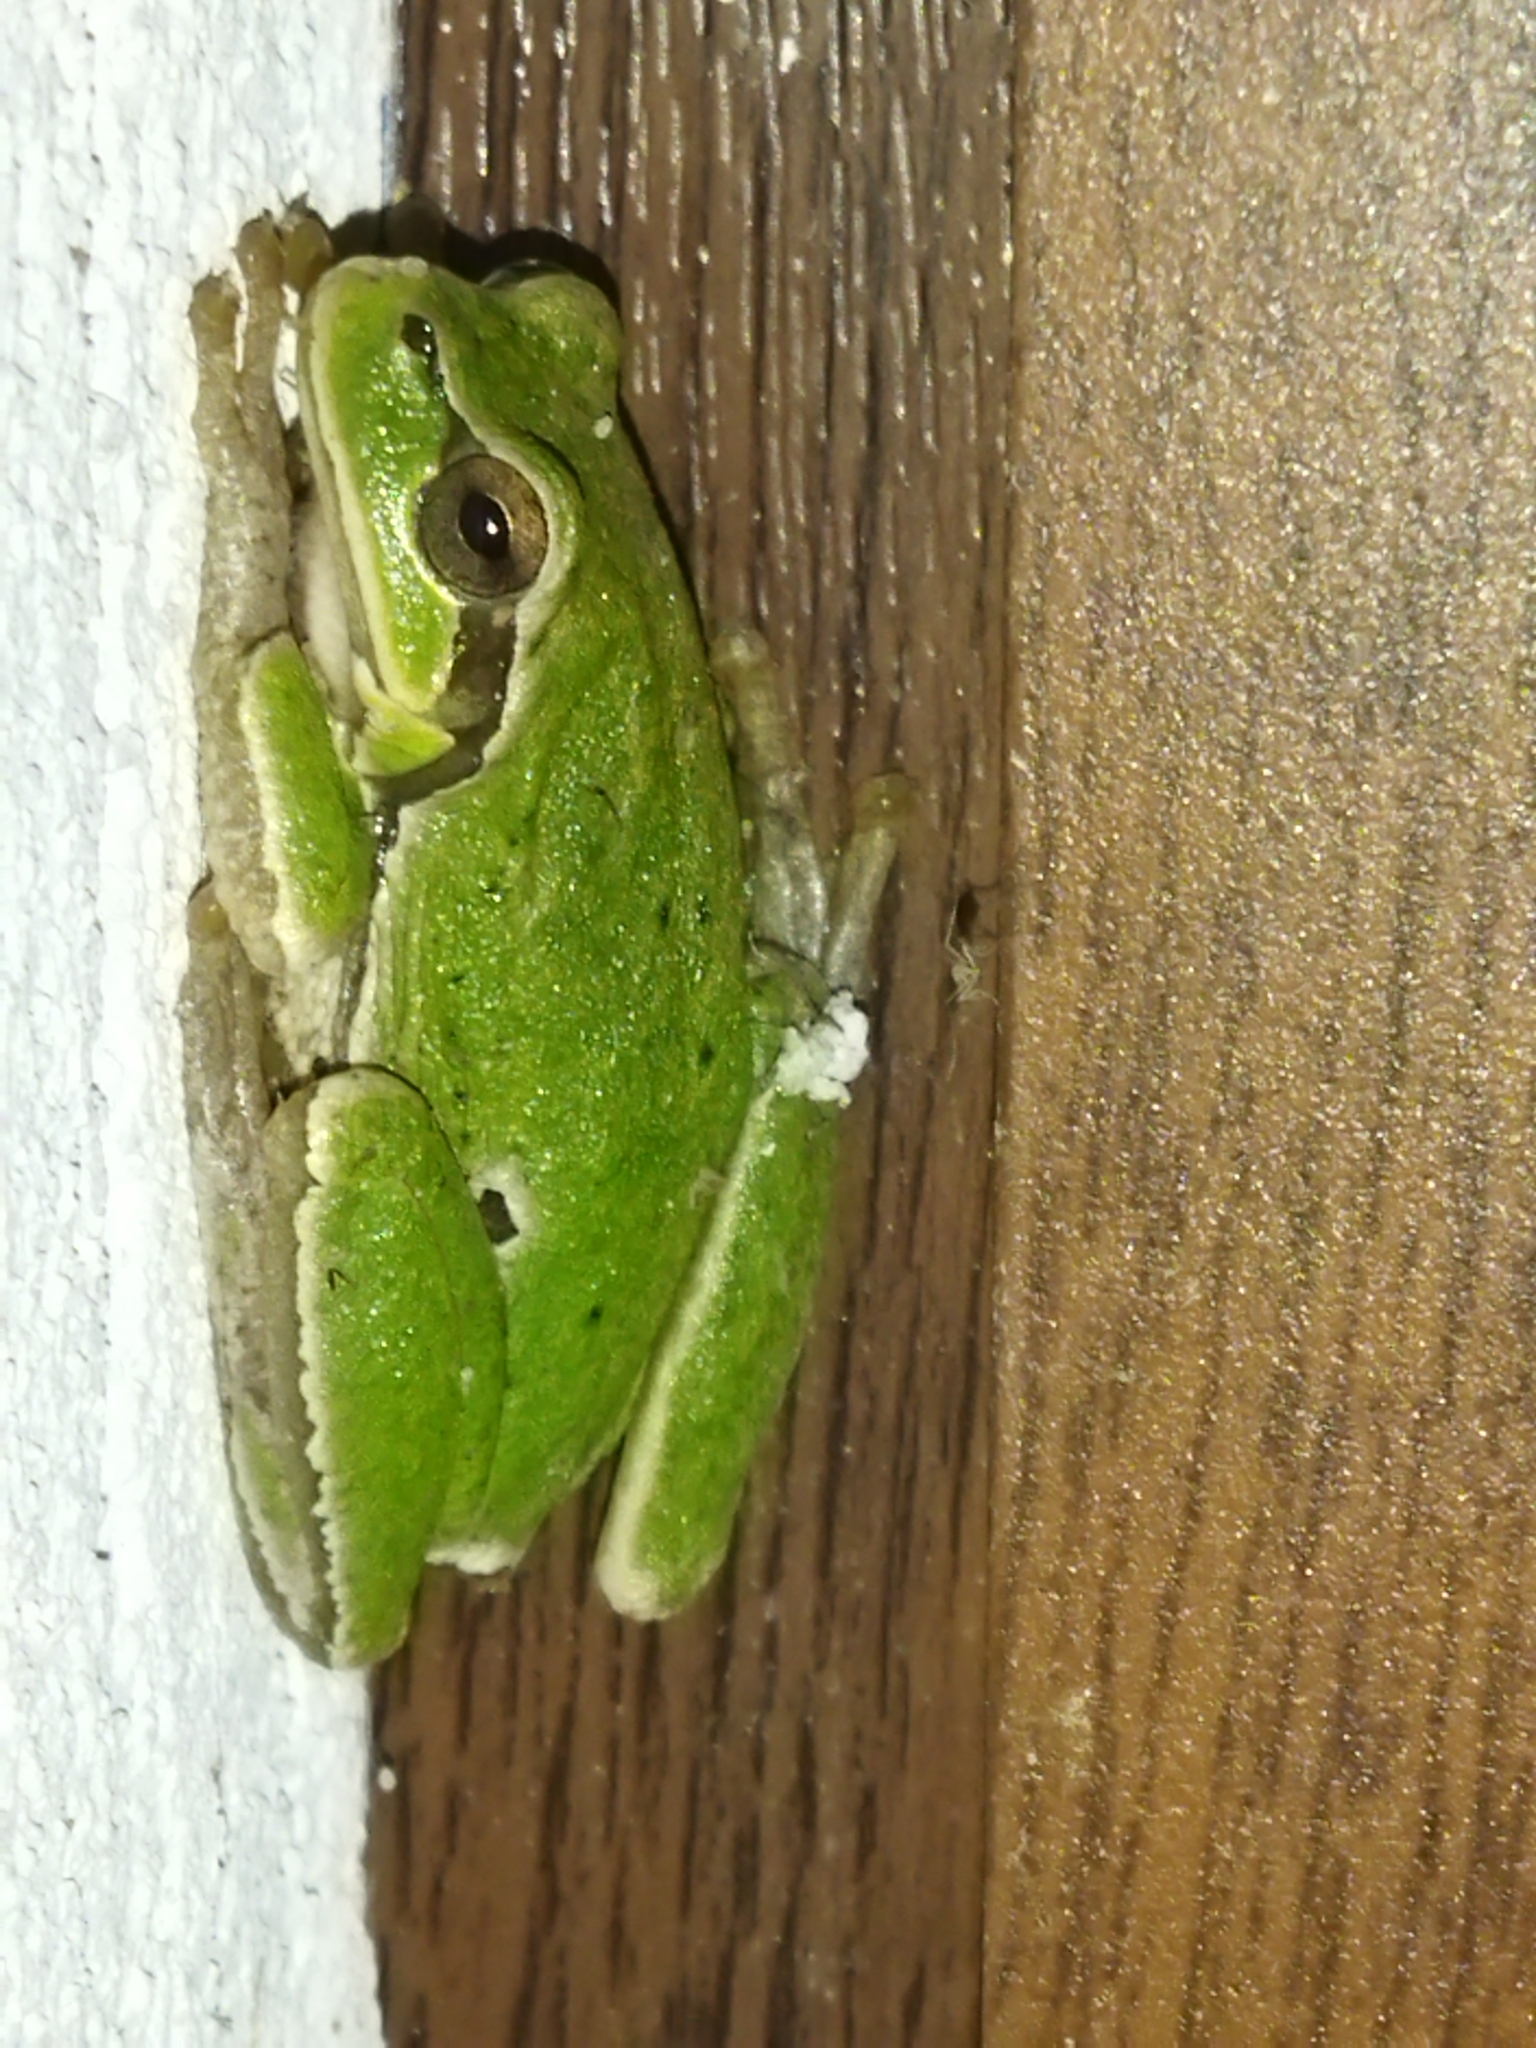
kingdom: Animalia
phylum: Chordata
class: Amphibia
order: Anura
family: Hylidae
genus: Hyla
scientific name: Hyla orientalis
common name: Caucasian treefrog
